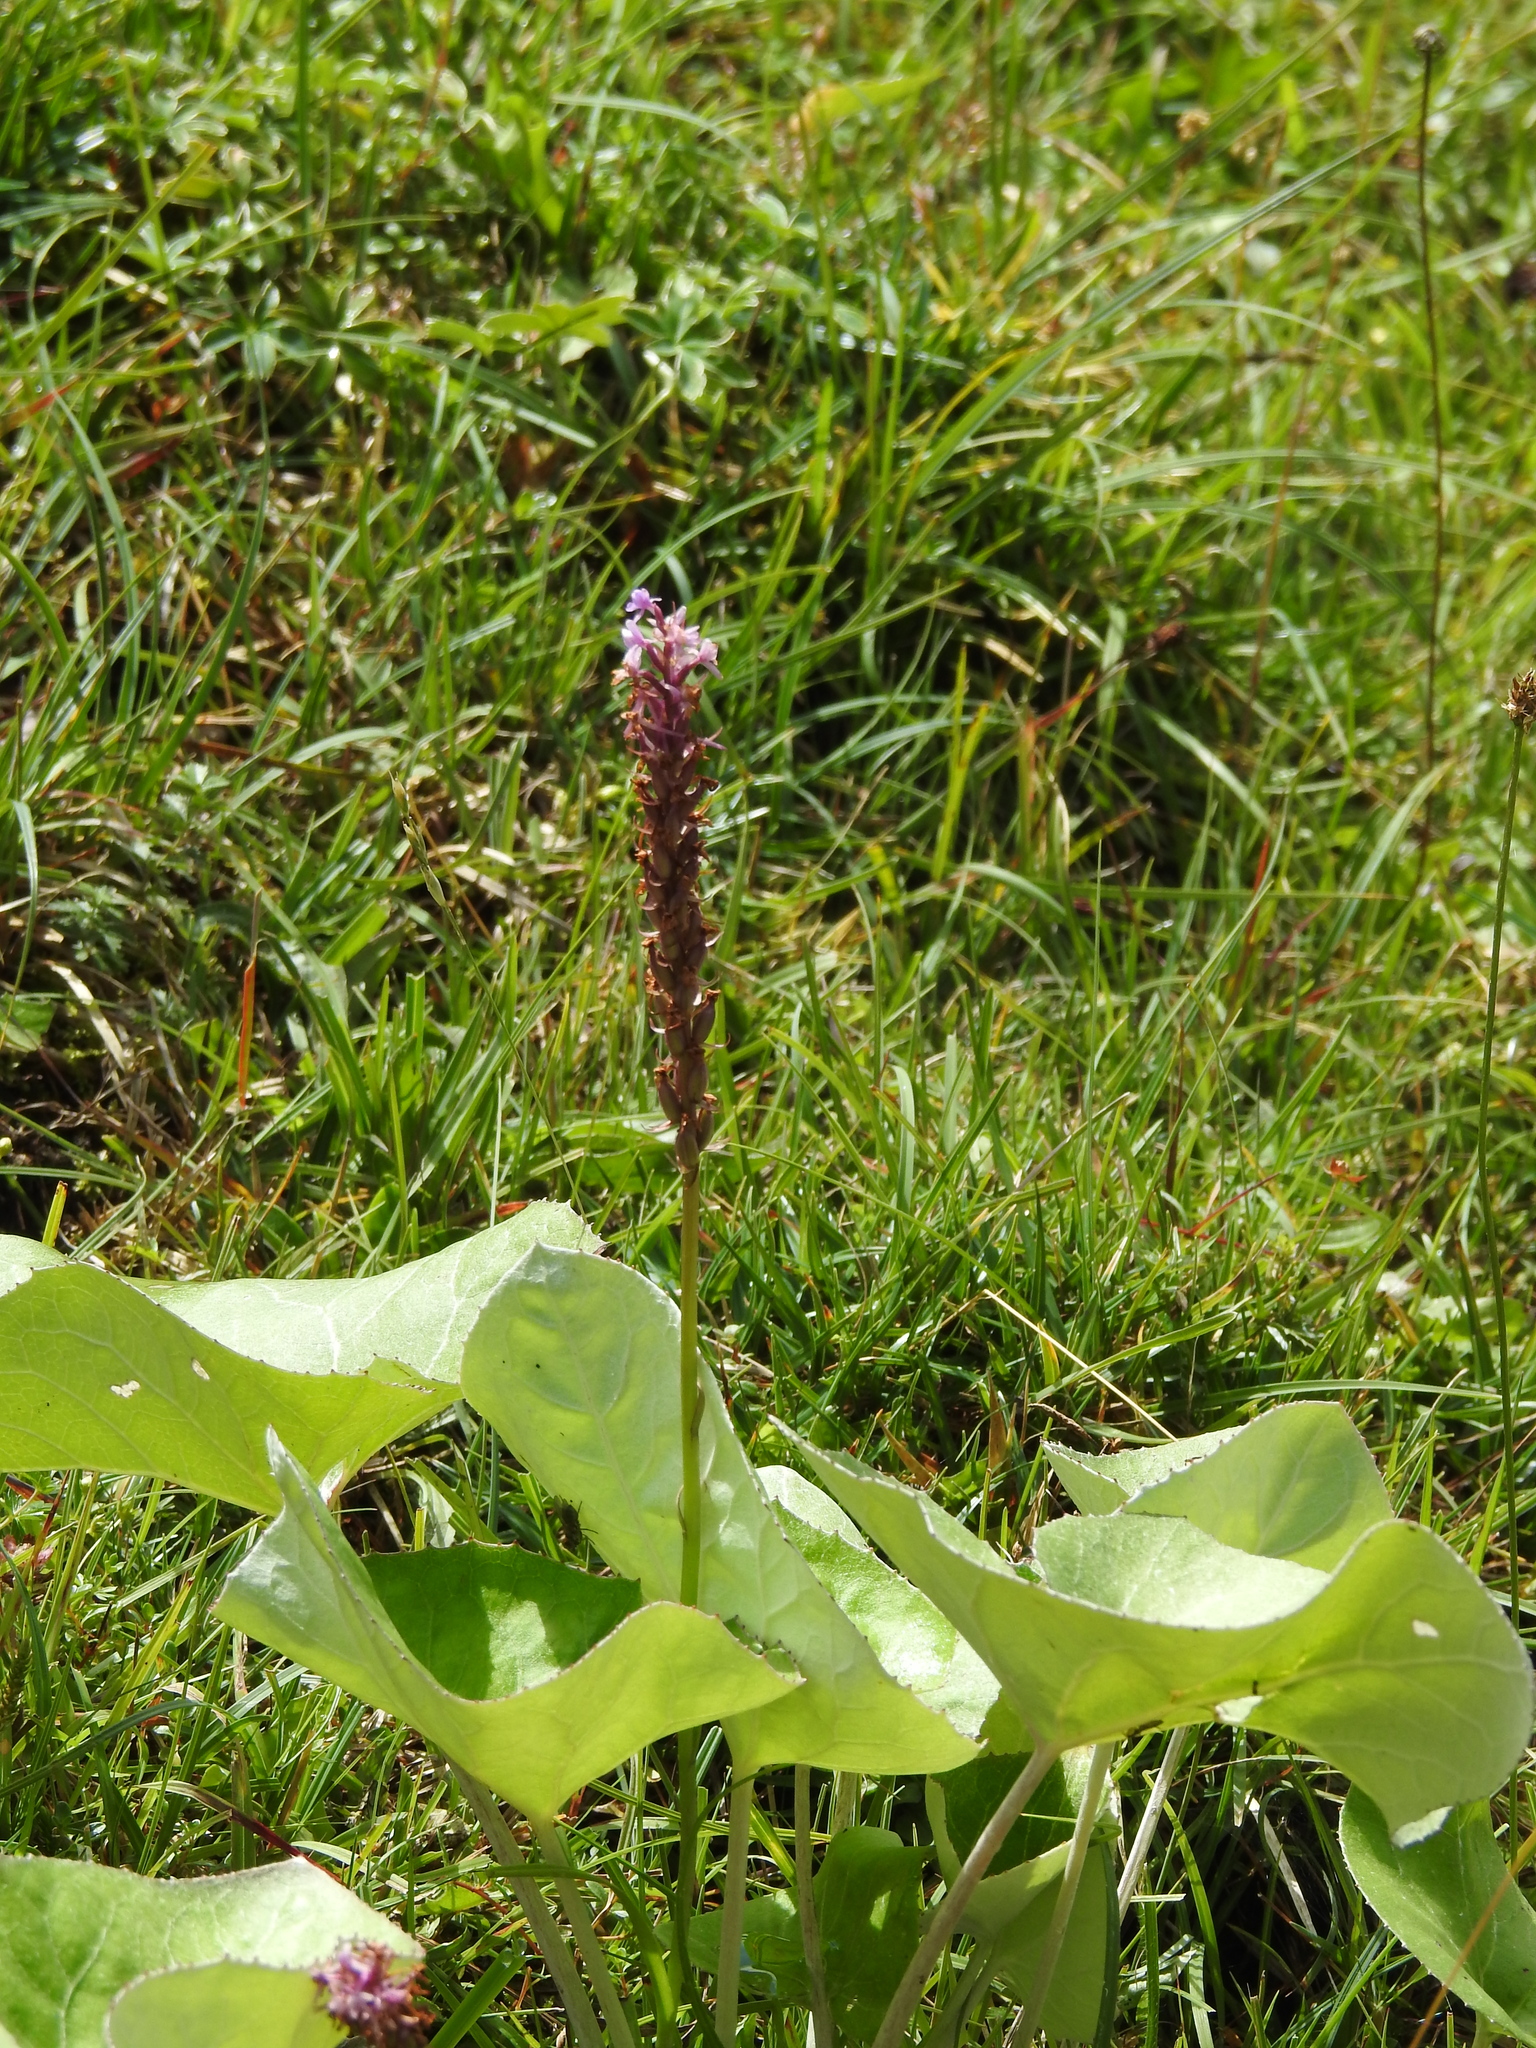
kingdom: Plantae
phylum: Tracheophyta
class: Liliopsida
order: Asparagales
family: Orchidaceae
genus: Gymnadenia
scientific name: Gymnadenia conopsea
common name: Fragrant orchid
